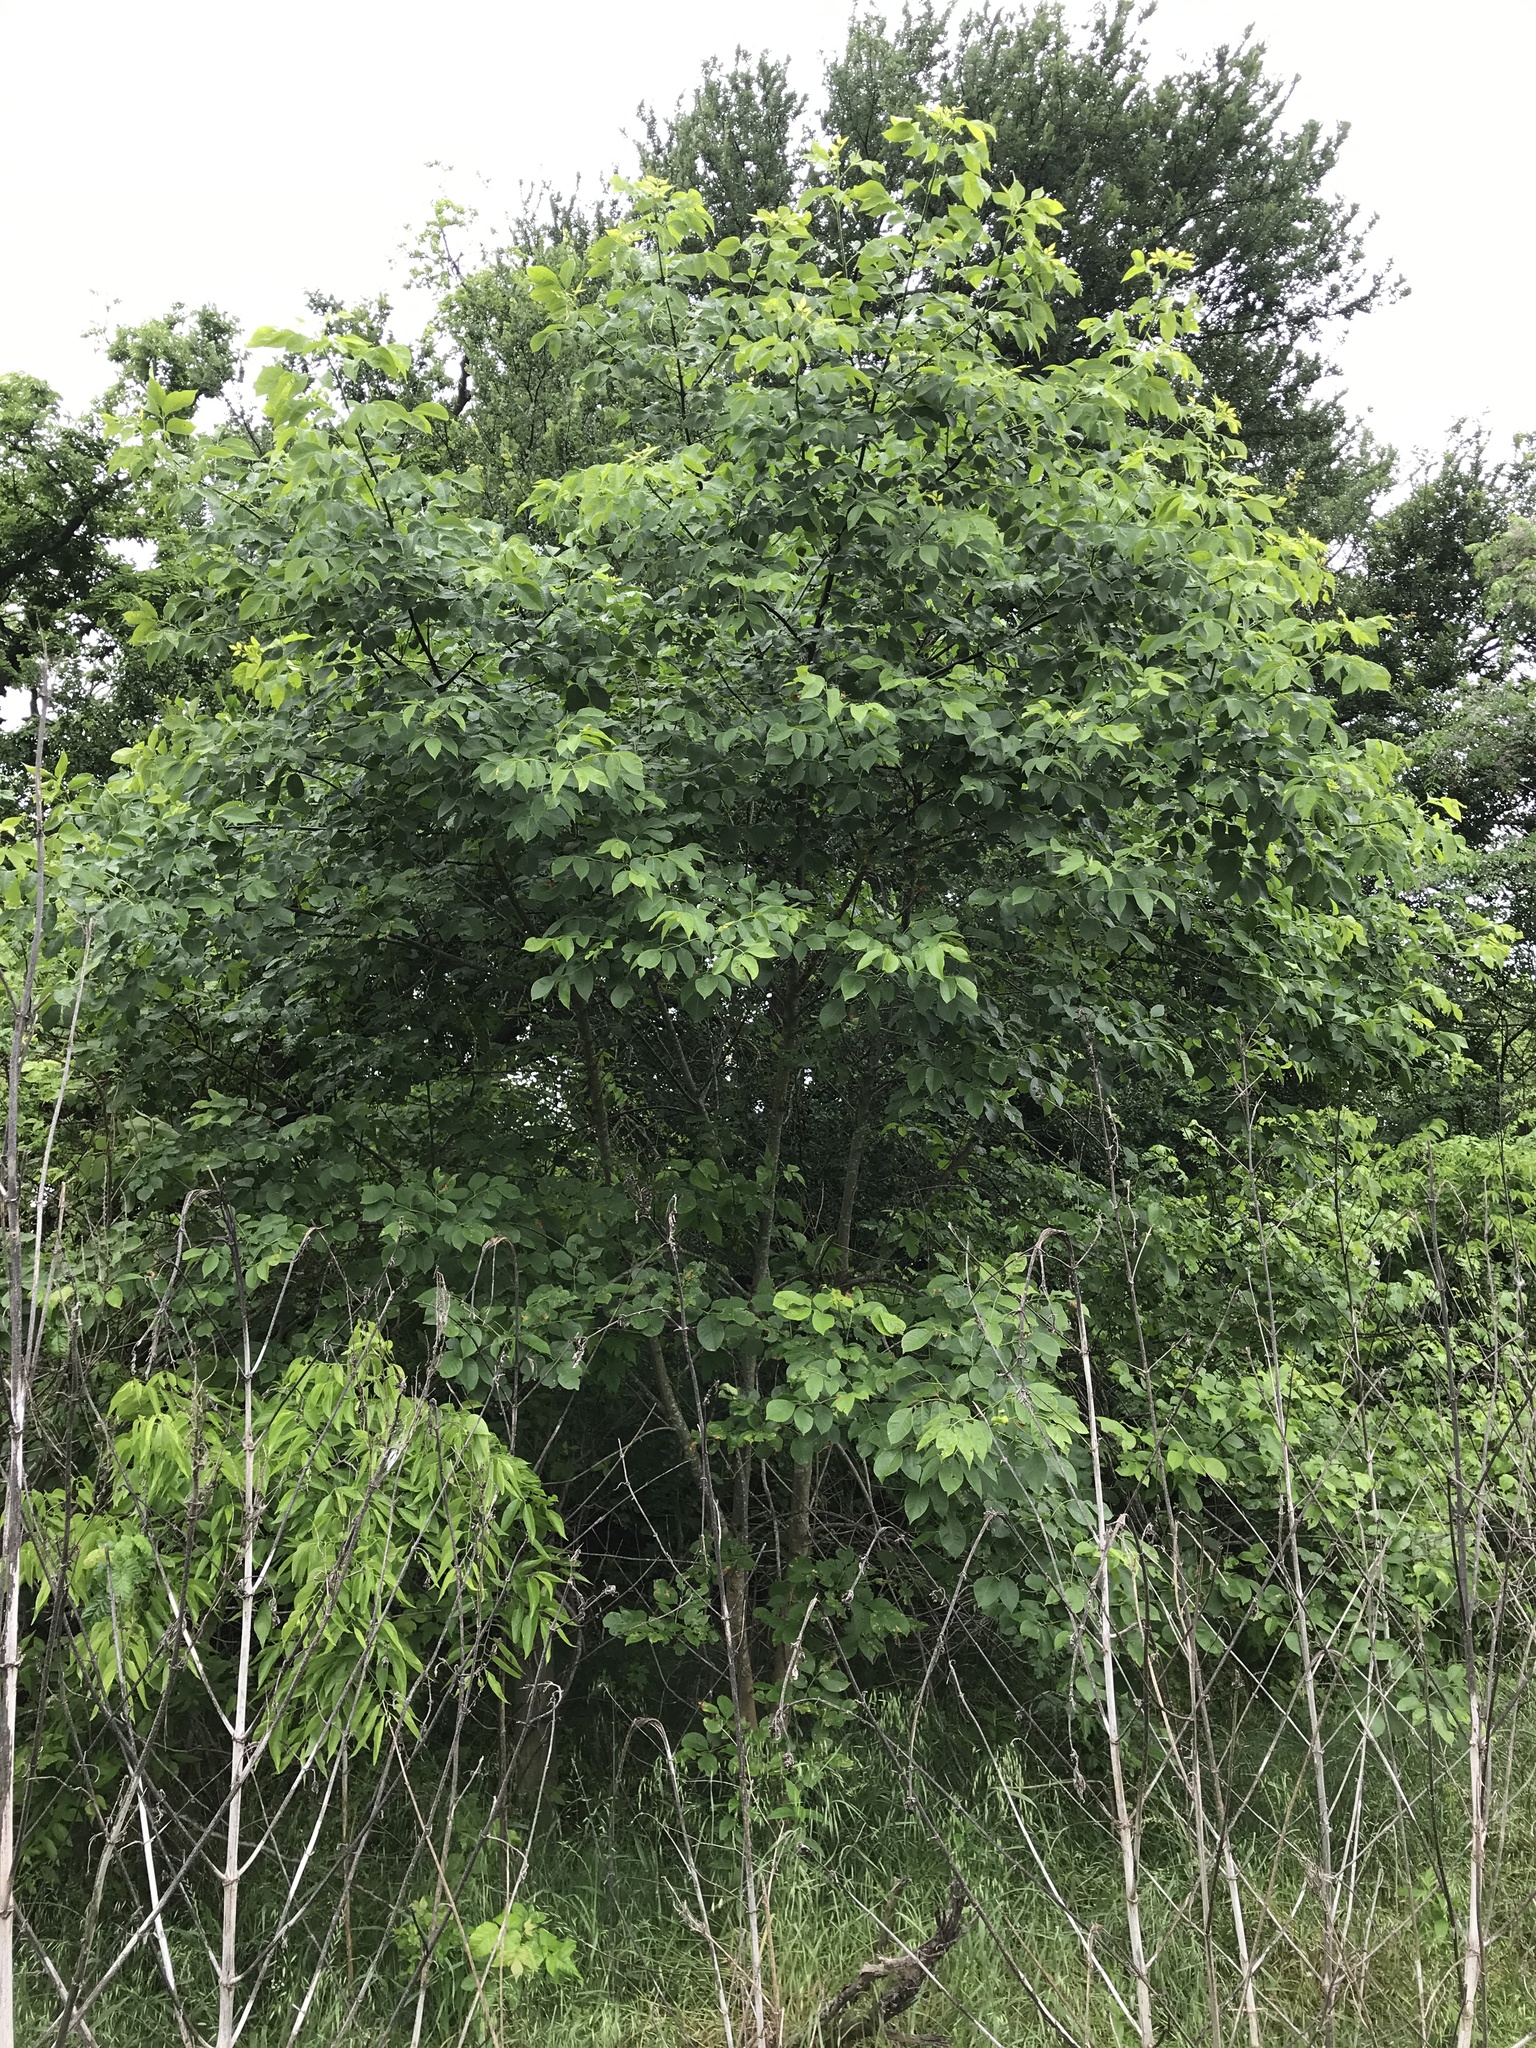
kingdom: Plantae
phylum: Tracheophyta
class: Magnoliopsida
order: Lamiales
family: Oleaceae
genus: Fraxinus
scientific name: Fraxinus albicans
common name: Texas ash
